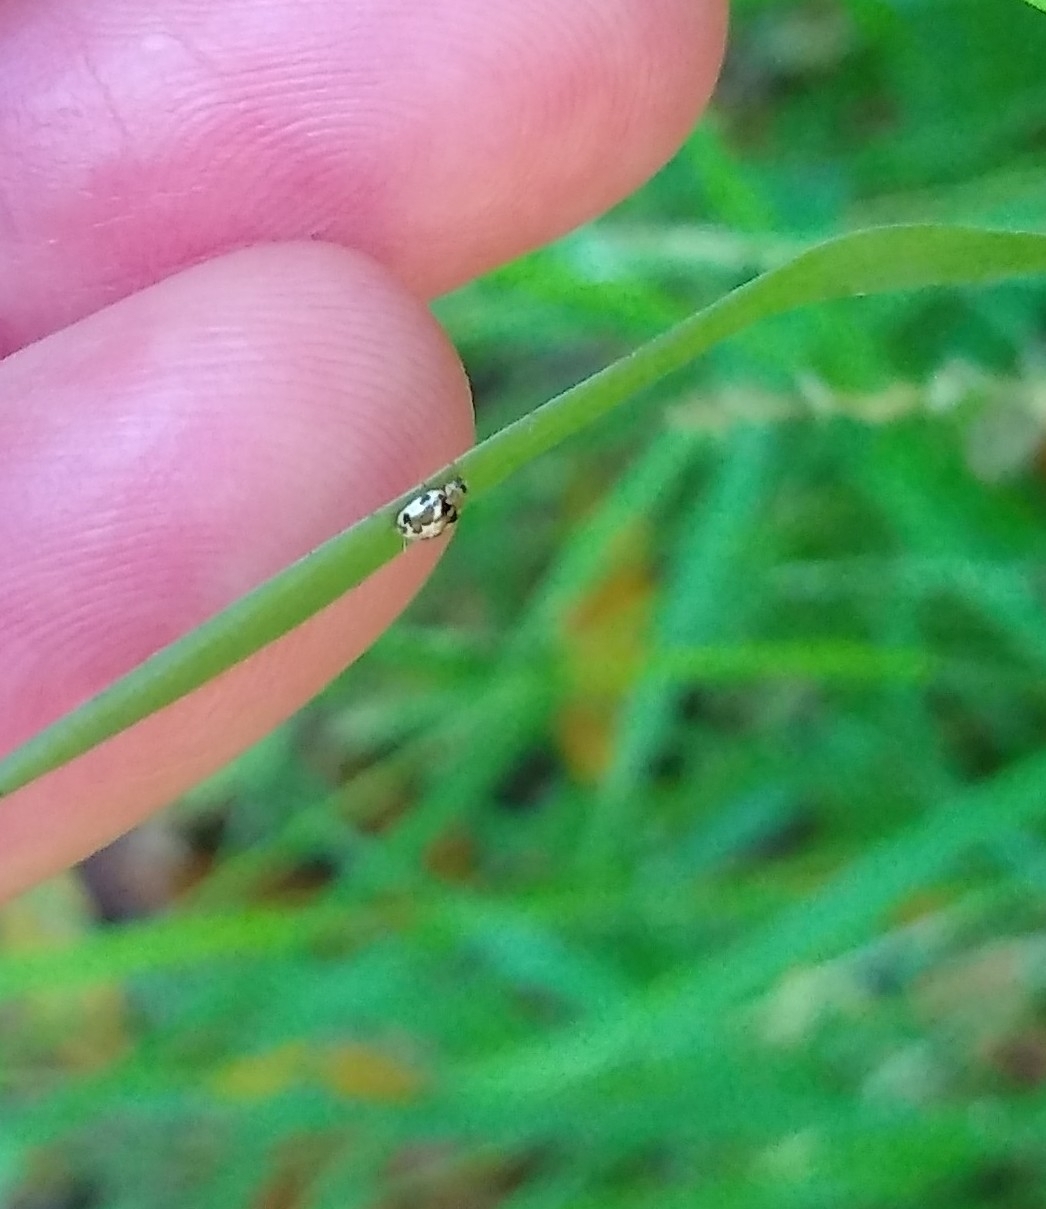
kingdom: Animalia
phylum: Arthropoda
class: Insecta
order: Coleoptera
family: Coccinellidae
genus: Psyllobora
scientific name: Psyllobora vigintimaculata
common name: Ladybird beetle
